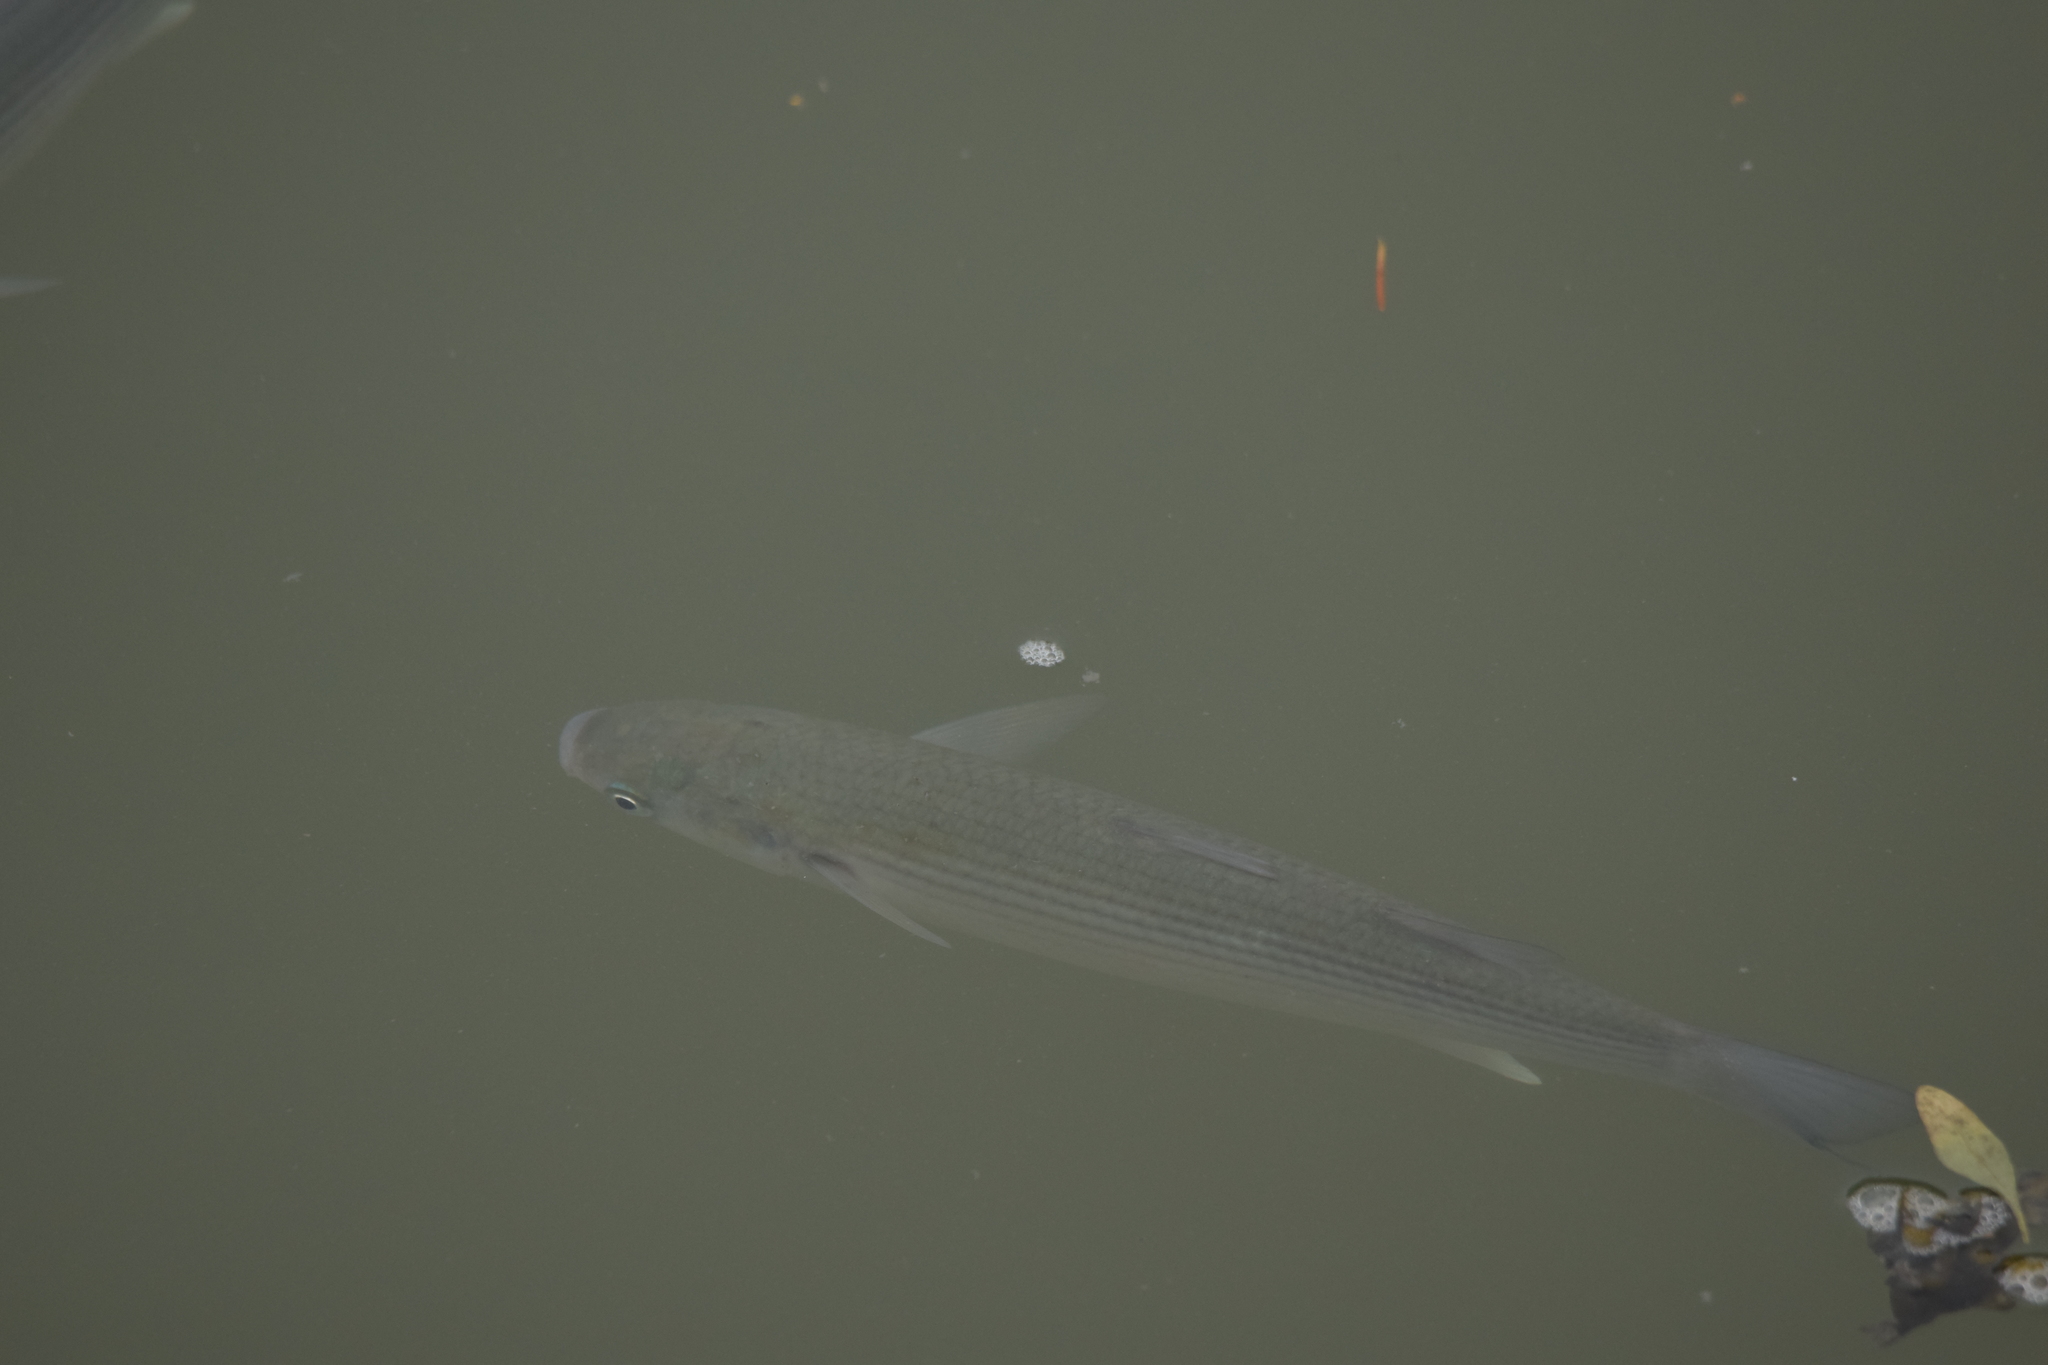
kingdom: Animalia
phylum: Chordata
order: Mugiliformes
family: Mugilidae
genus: Chelon
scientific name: Chelon labrosus
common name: Thick-lipped mullet
